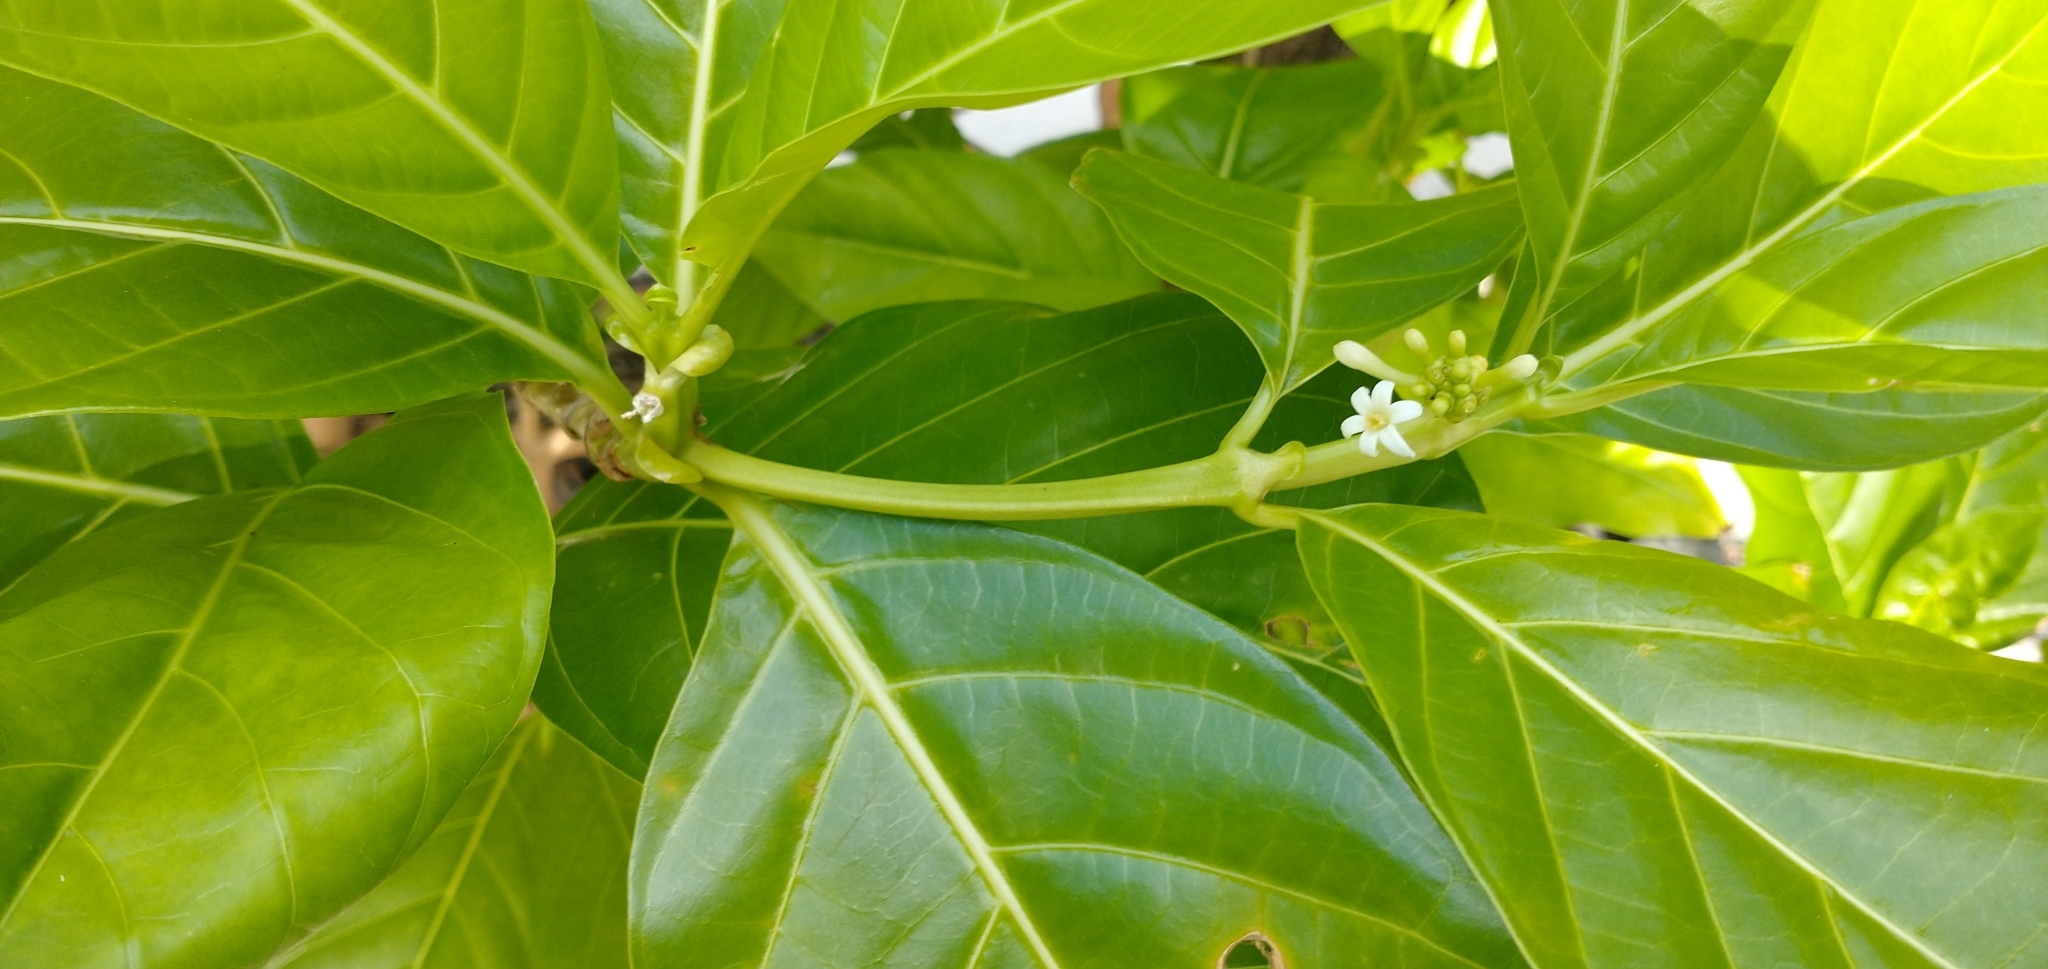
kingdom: Plantae
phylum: Tracheophyta
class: Magnoliopsida
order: Gentianales
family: Rubiaceae
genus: Morinda
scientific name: Morinda citrifolia
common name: Indian-mulberry
